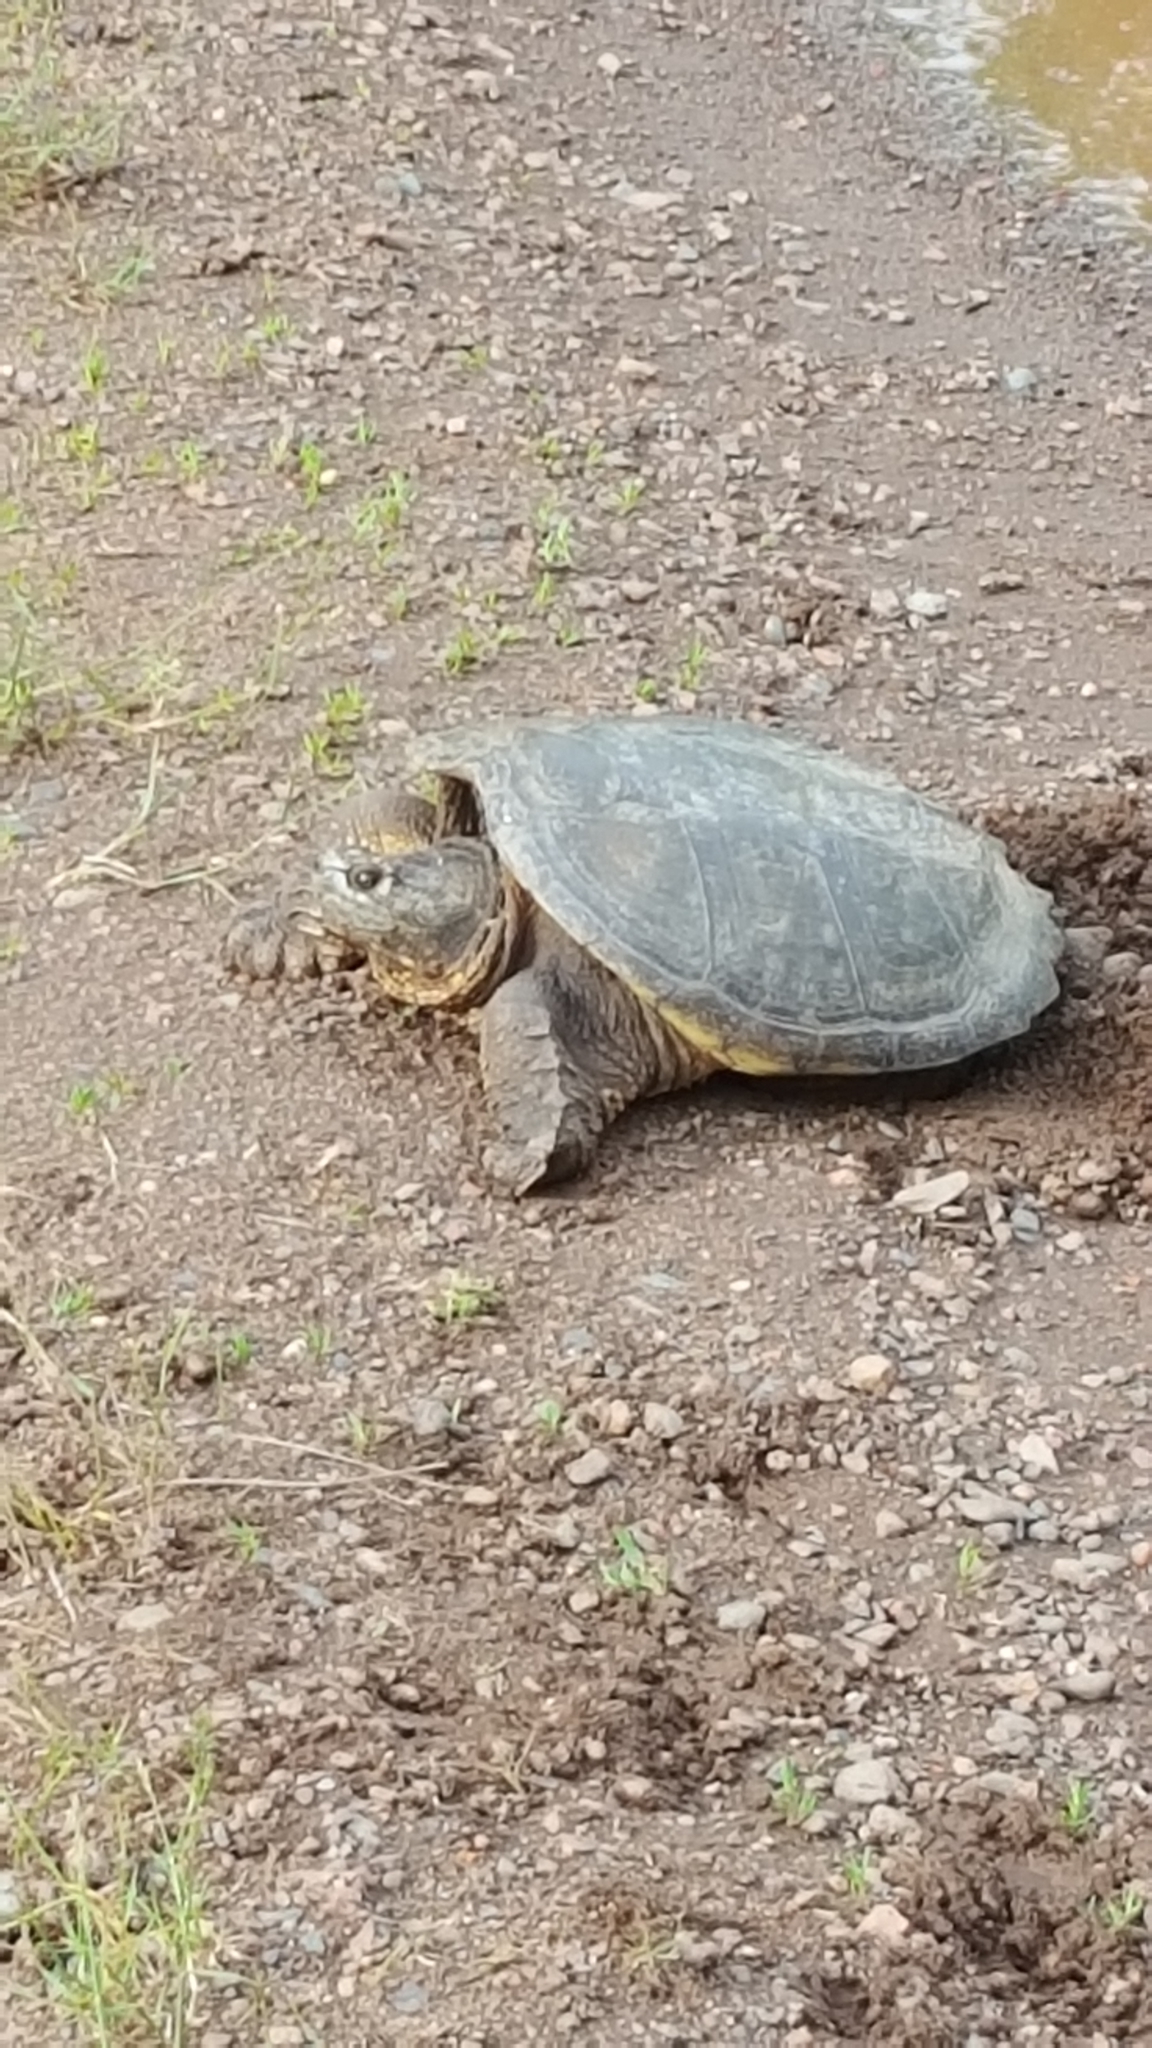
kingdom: Animalia
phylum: Chordata
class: Testudines
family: Chelydridae
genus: Chelydra
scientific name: Chelydra serpentina
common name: Common snapping turtle
